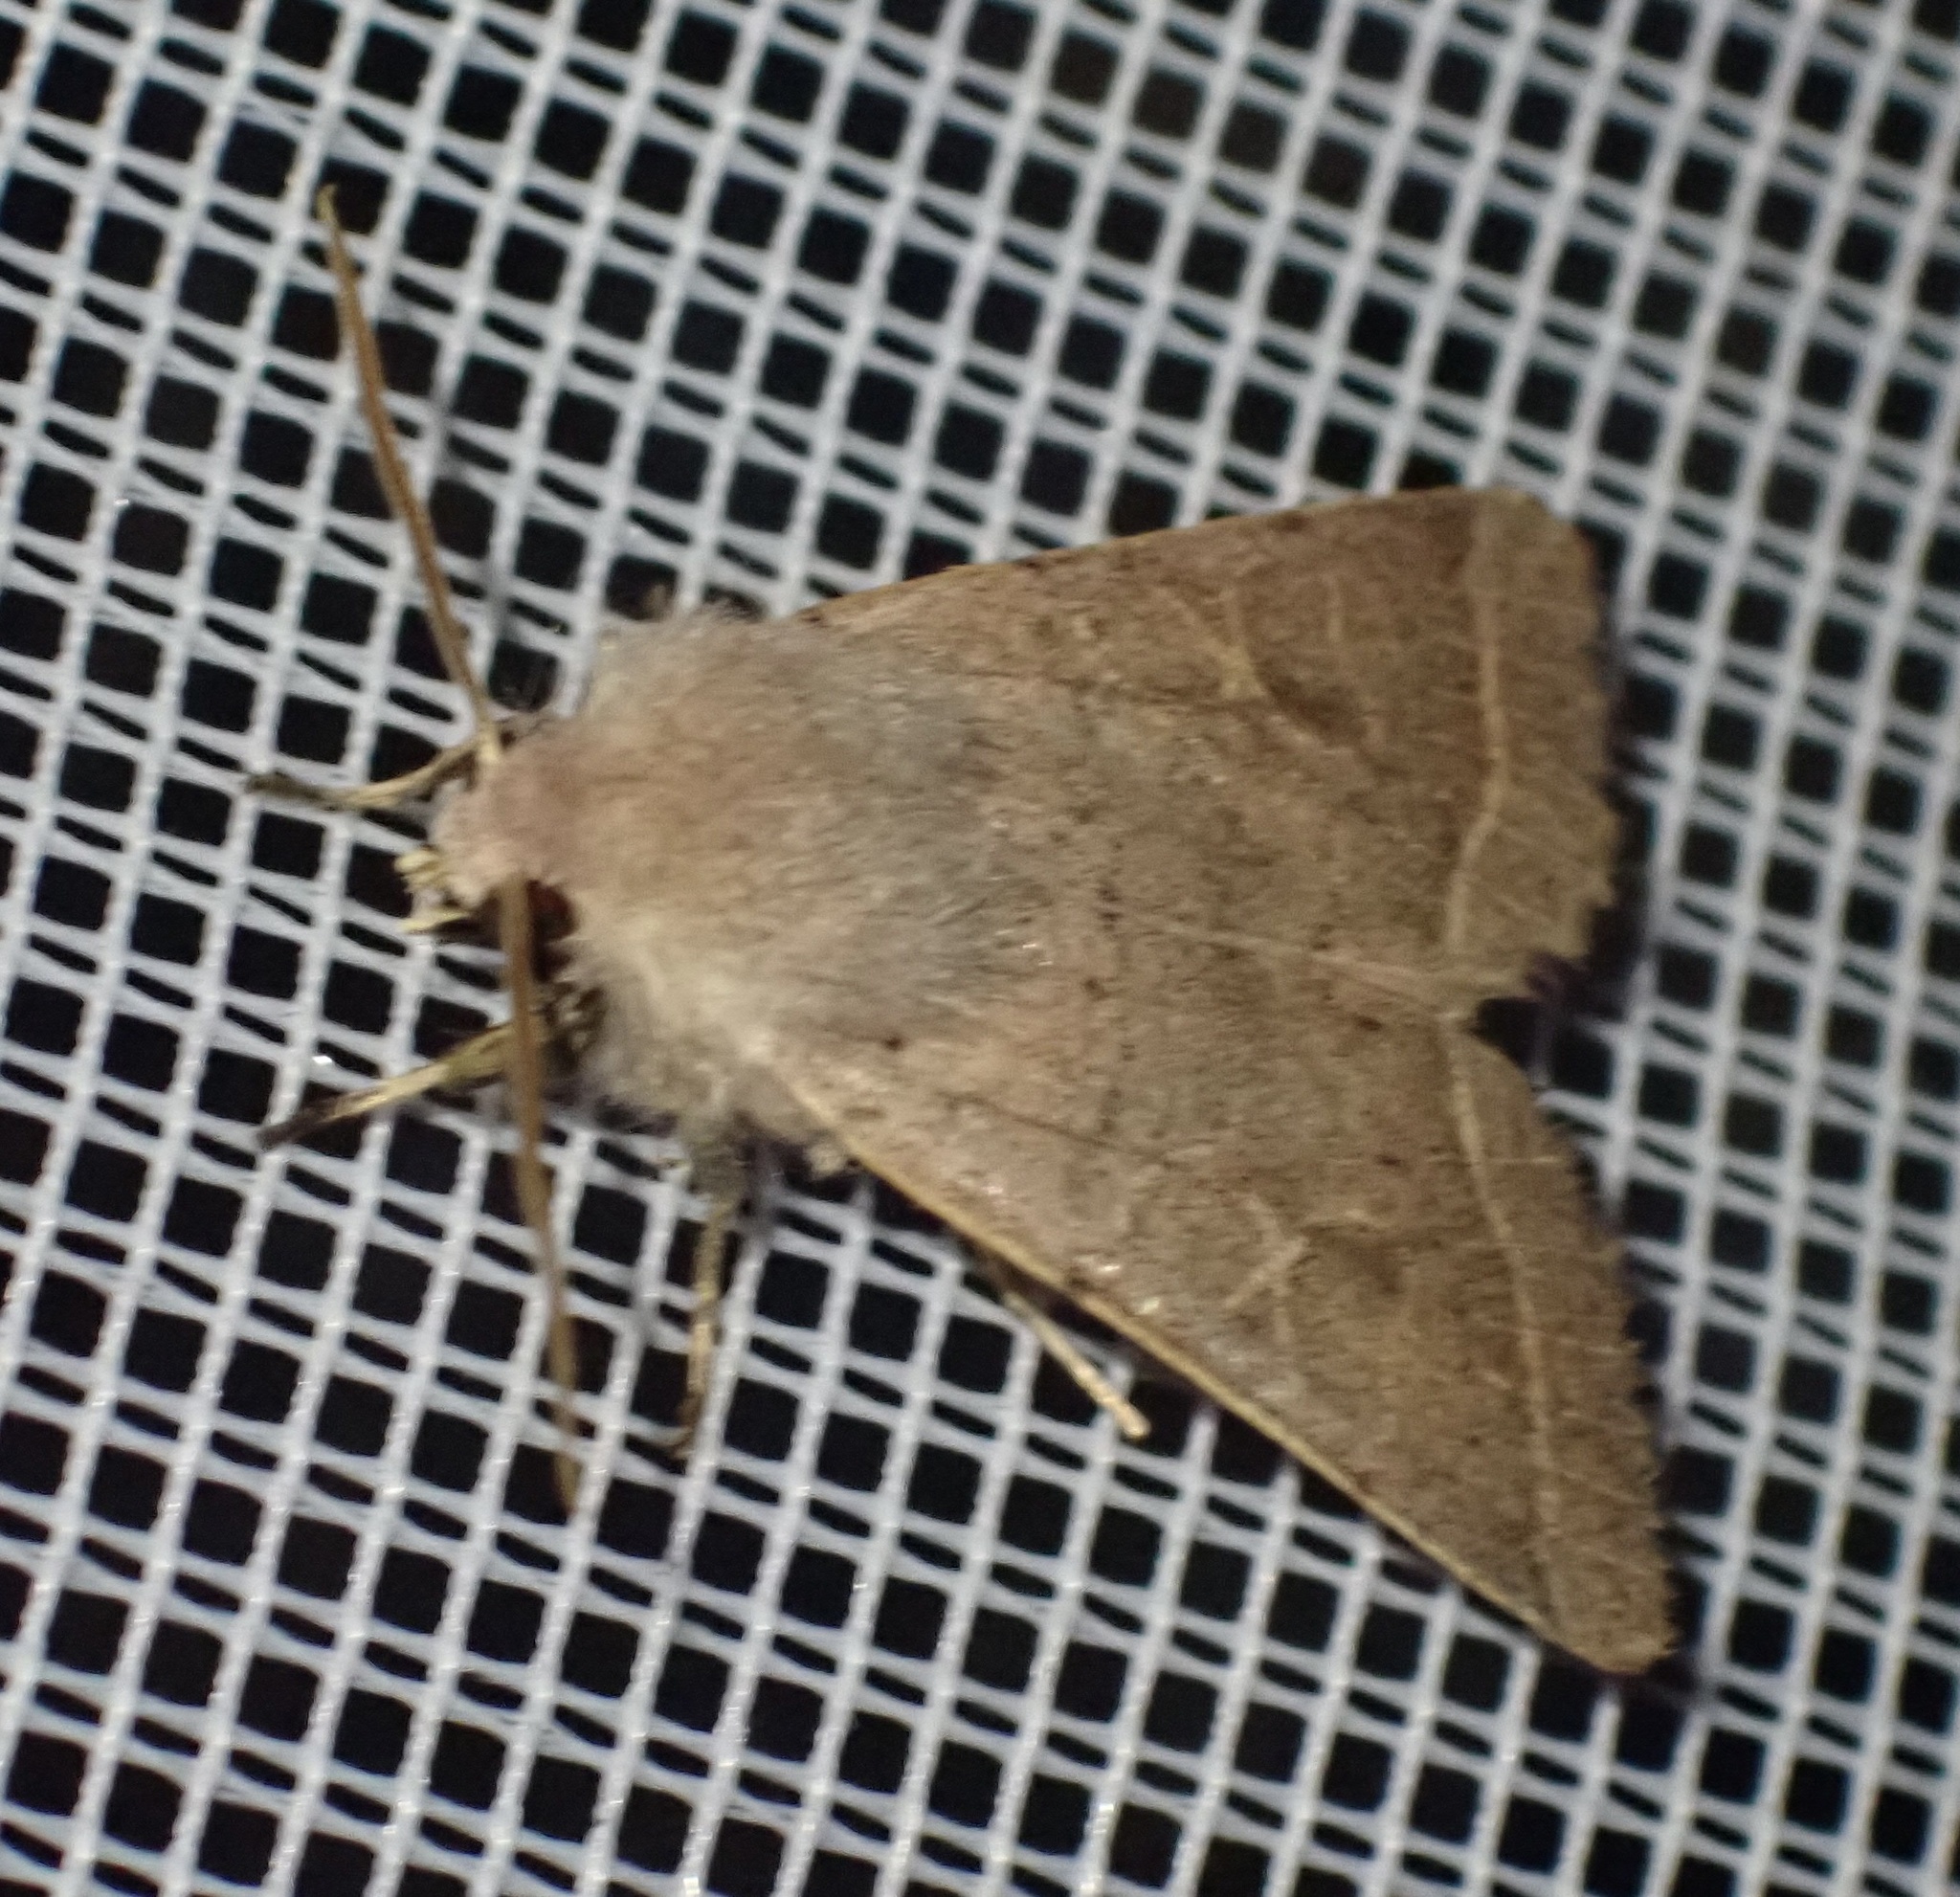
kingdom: Animalia
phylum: Arthropoda
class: Insecta
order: Lepidoptera
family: Noctuidae
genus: Orthosia
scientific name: Orthosia cerasi
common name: Common quaker
